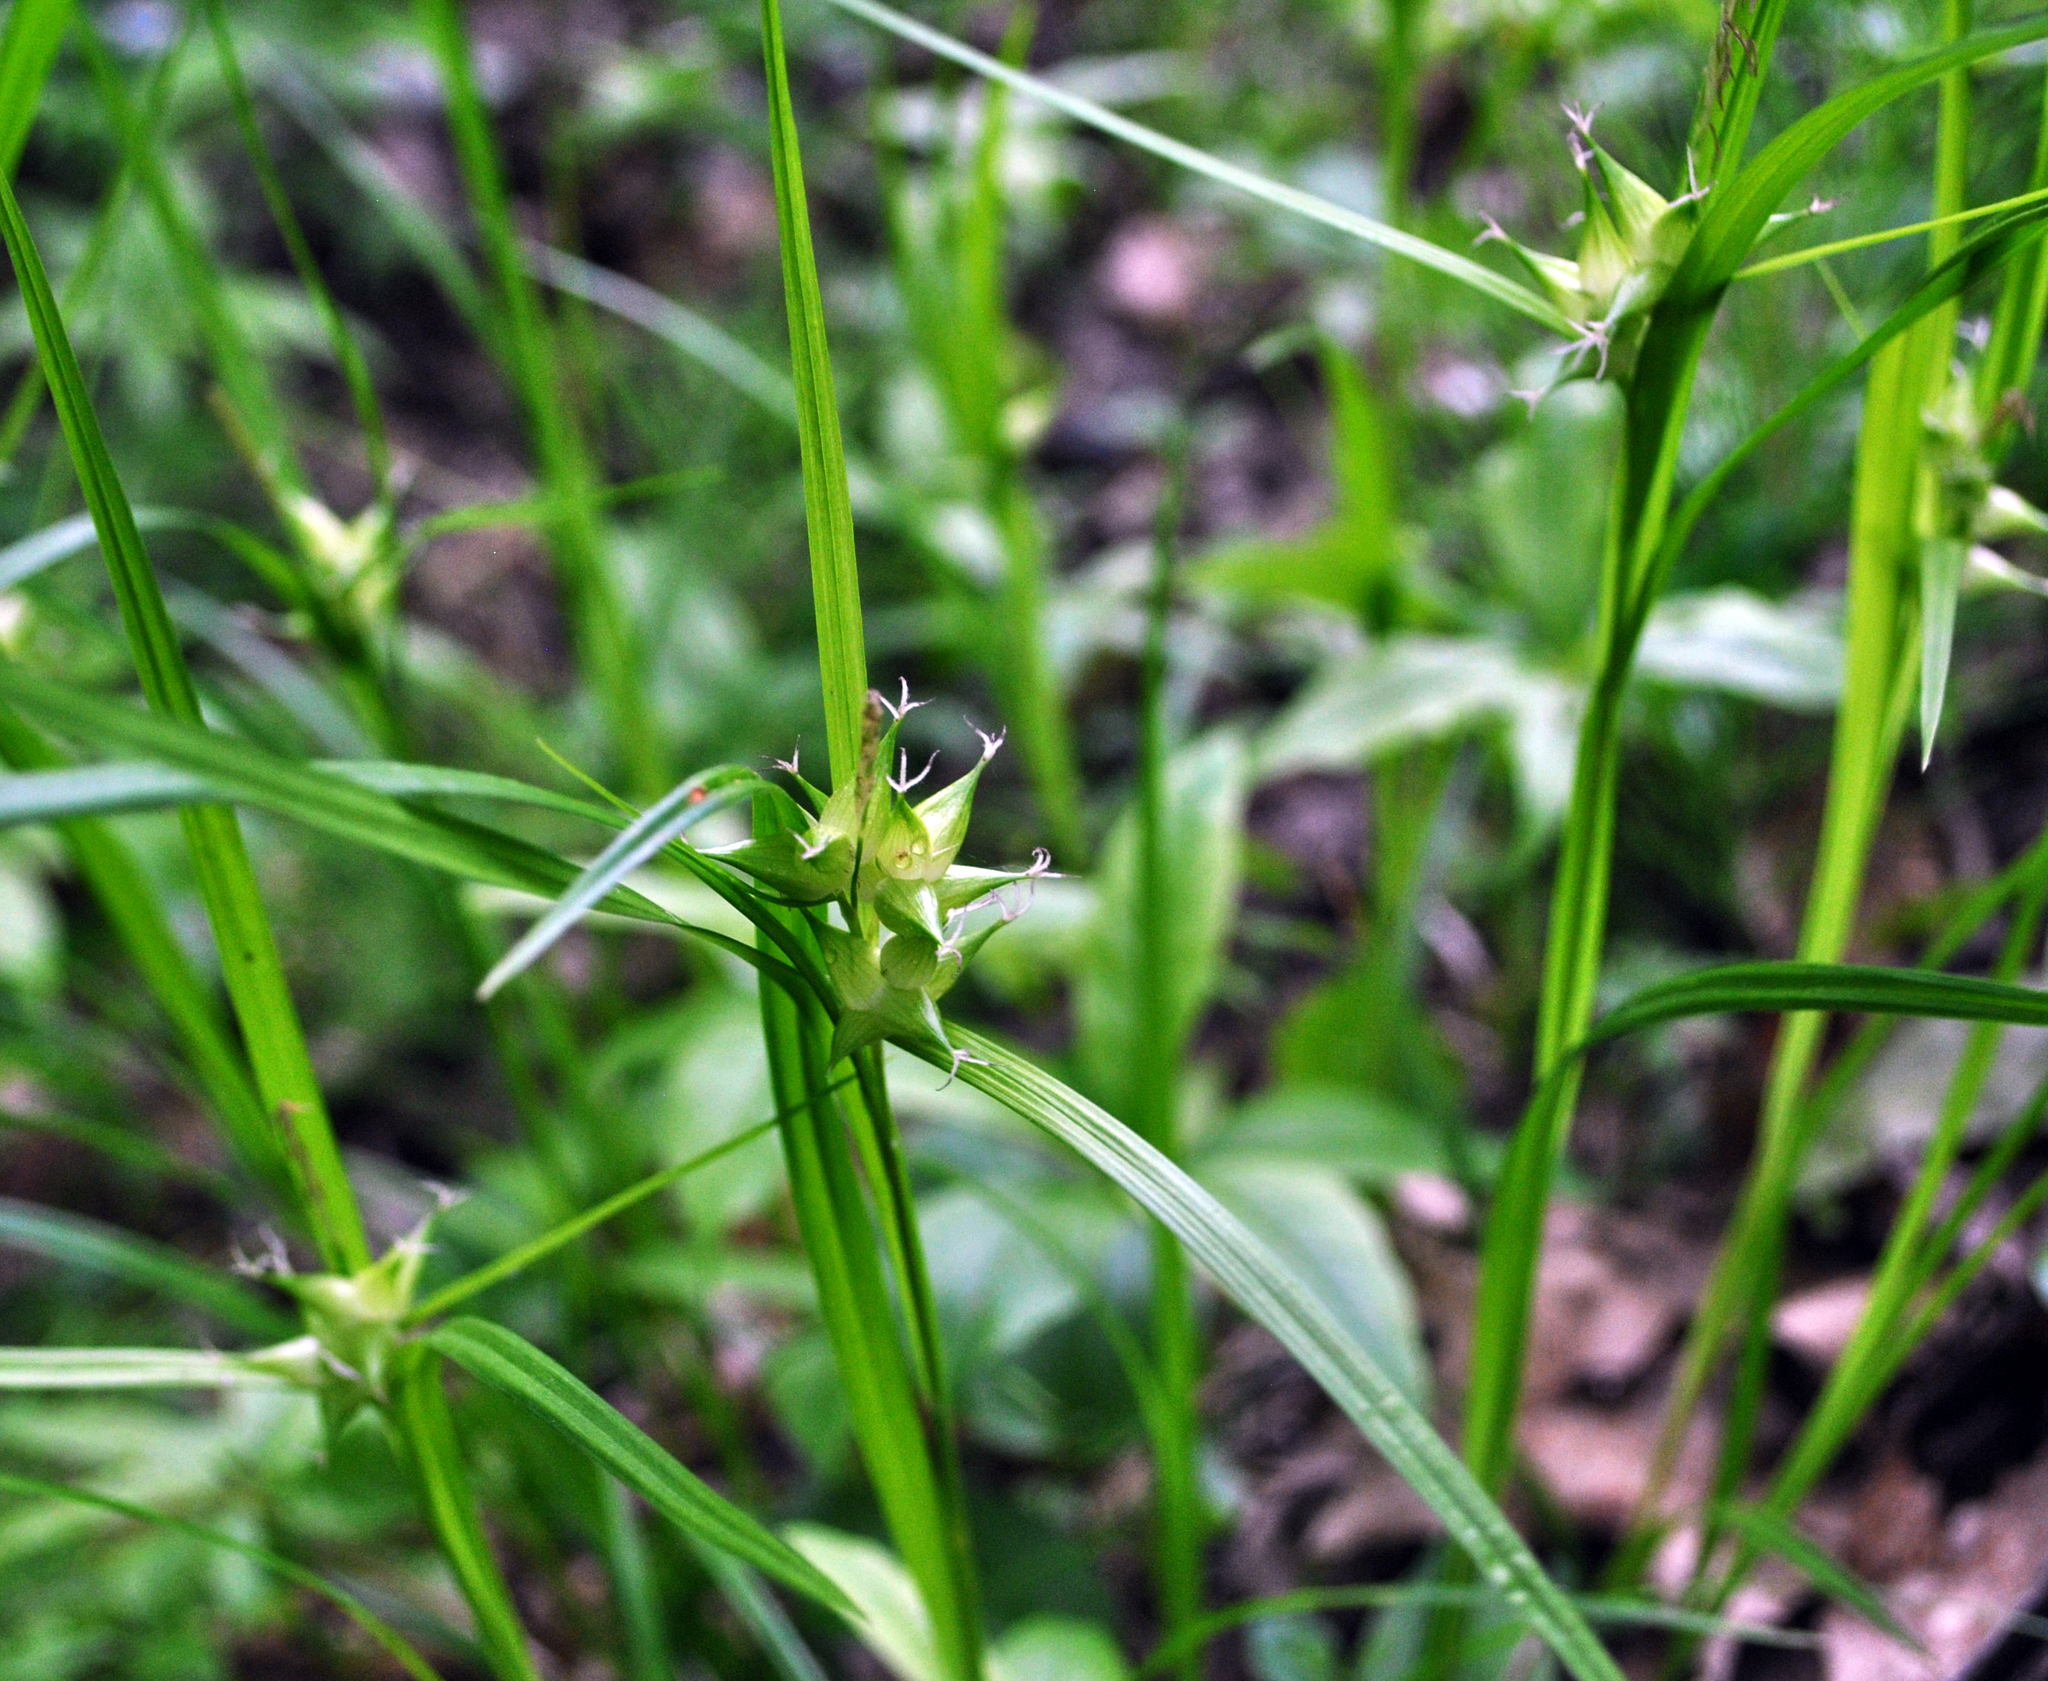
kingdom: Plantae
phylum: Tracheophyta
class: Liliopsida
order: Poales
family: Cyperaceae
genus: Carex
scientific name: Carex intumescens
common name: Greater bladder sedge
